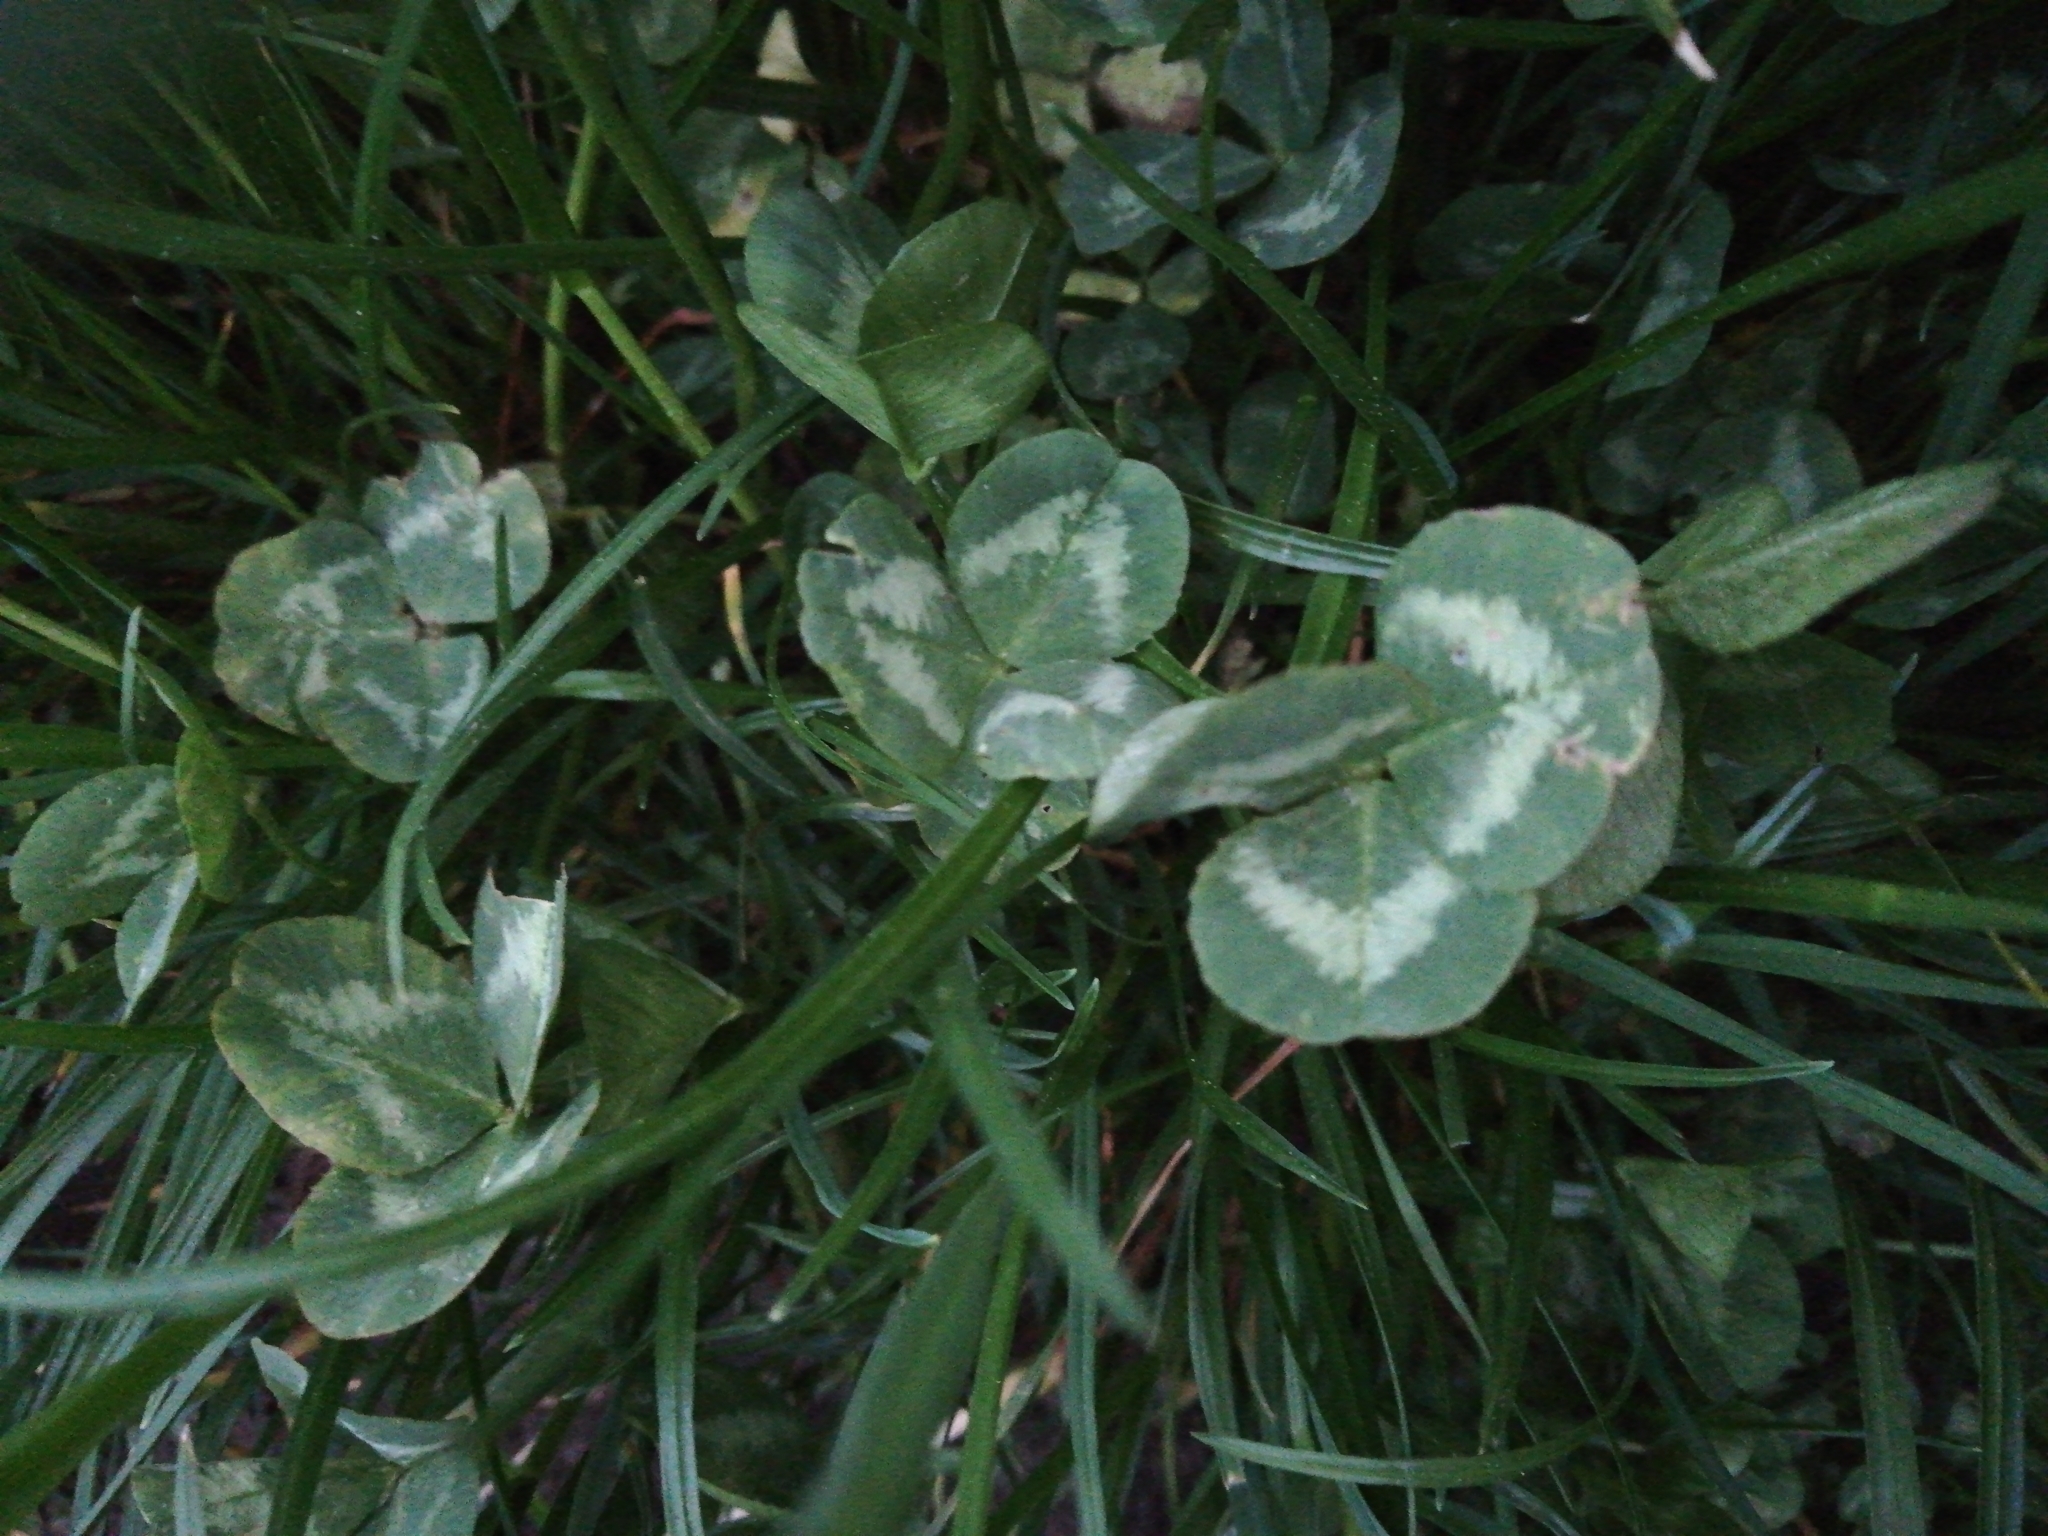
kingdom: Plantae
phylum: Tracheophyta
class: Magnoliopsida
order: Fabales
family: Fabaceae
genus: Trifolium
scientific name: Trifolium repens
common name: White clover
